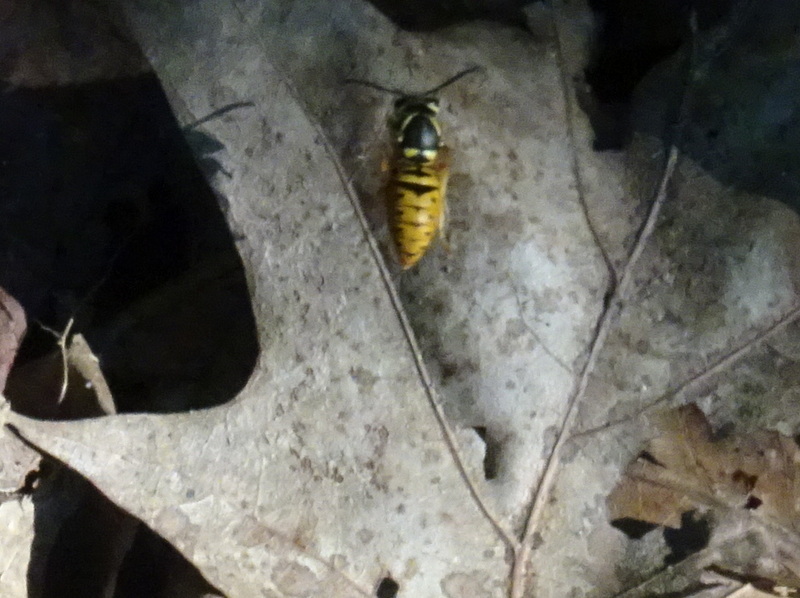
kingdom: Animalia
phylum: Arthropoda
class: Insecta
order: Hymenoptera
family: Vespidae
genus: Vespula
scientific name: Vespula maculifrons
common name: Eastern yellowjacket
